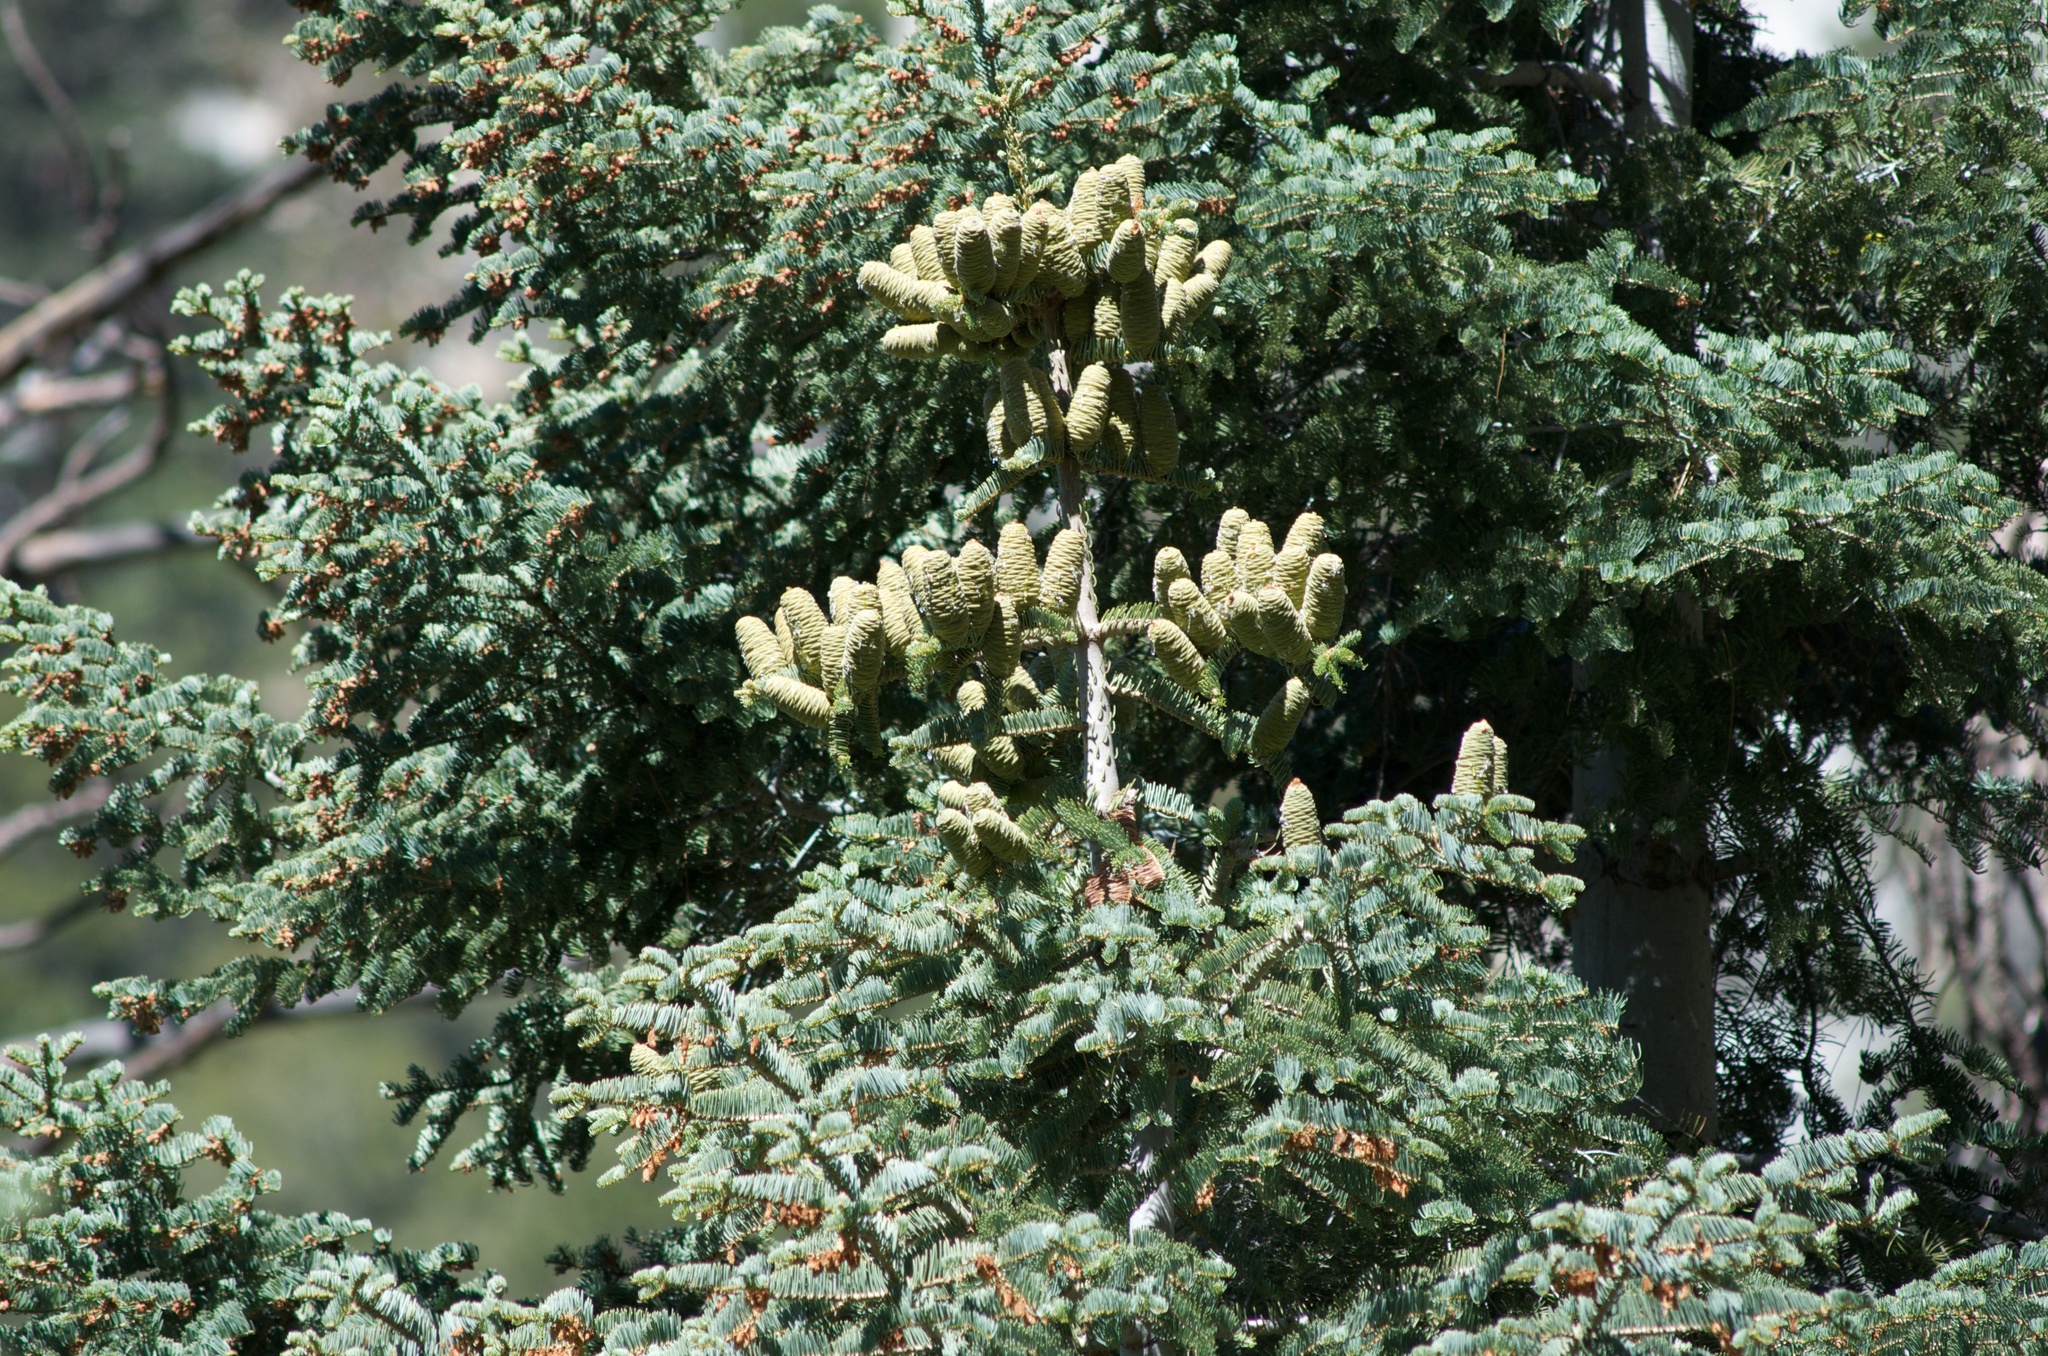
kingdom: Plantae
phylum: Tracheophyta
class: Pinopsida
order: Pinales
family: Pinaceae
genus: Abies
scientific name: Abies concolor
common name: Colorado fir
